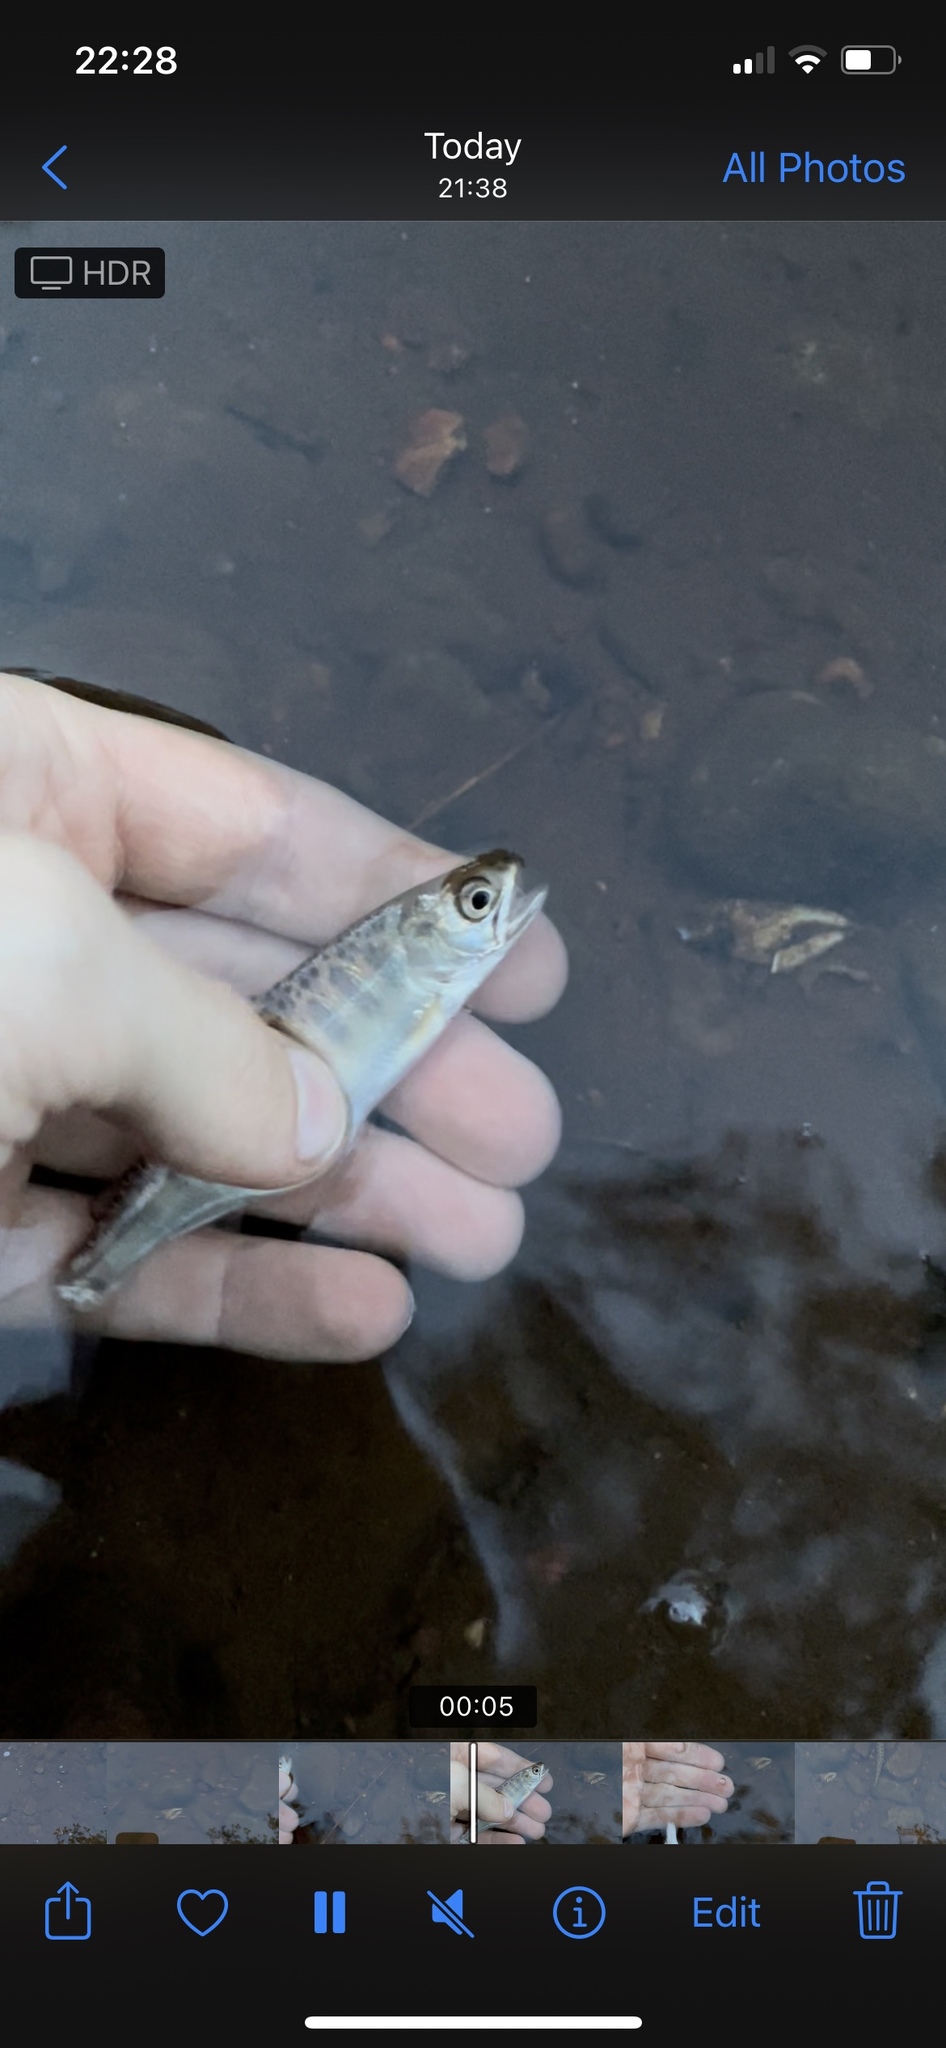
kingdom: Animalia
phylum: Chordata
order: Salmoniformes
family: Salmonidae
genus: Oncorhynchus
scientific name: Oncorhynchus tshawytscha
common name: Chinook salmon
